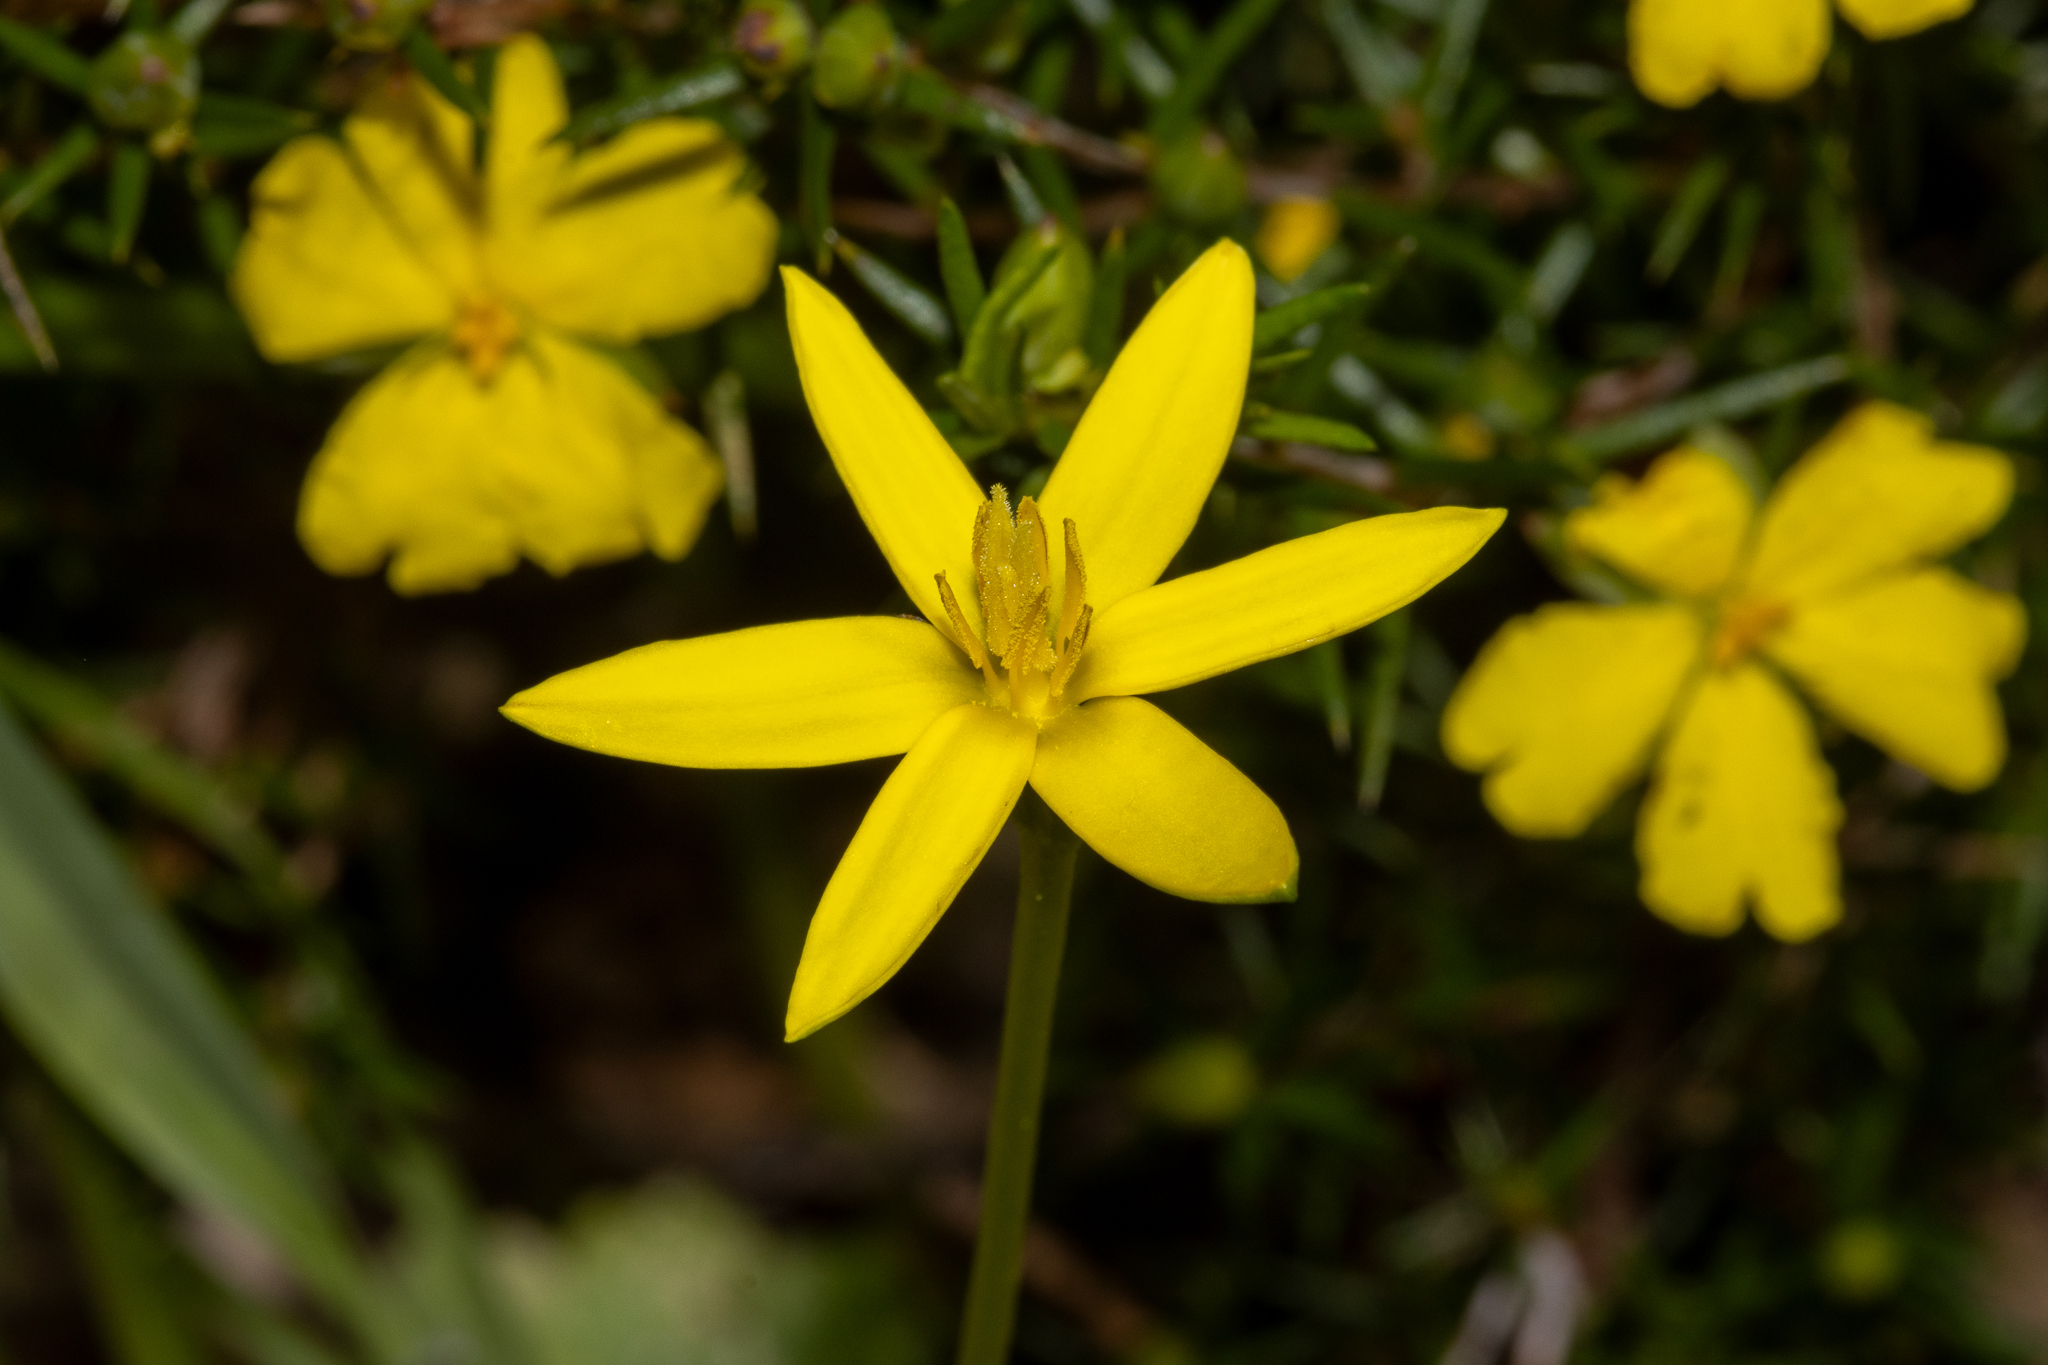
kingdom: Plantae
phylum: Tracheophyta
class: Liliopsida
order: Asparagales
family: Hypoxidaceae
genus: Pauridia
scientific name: Pauridia vaginata
